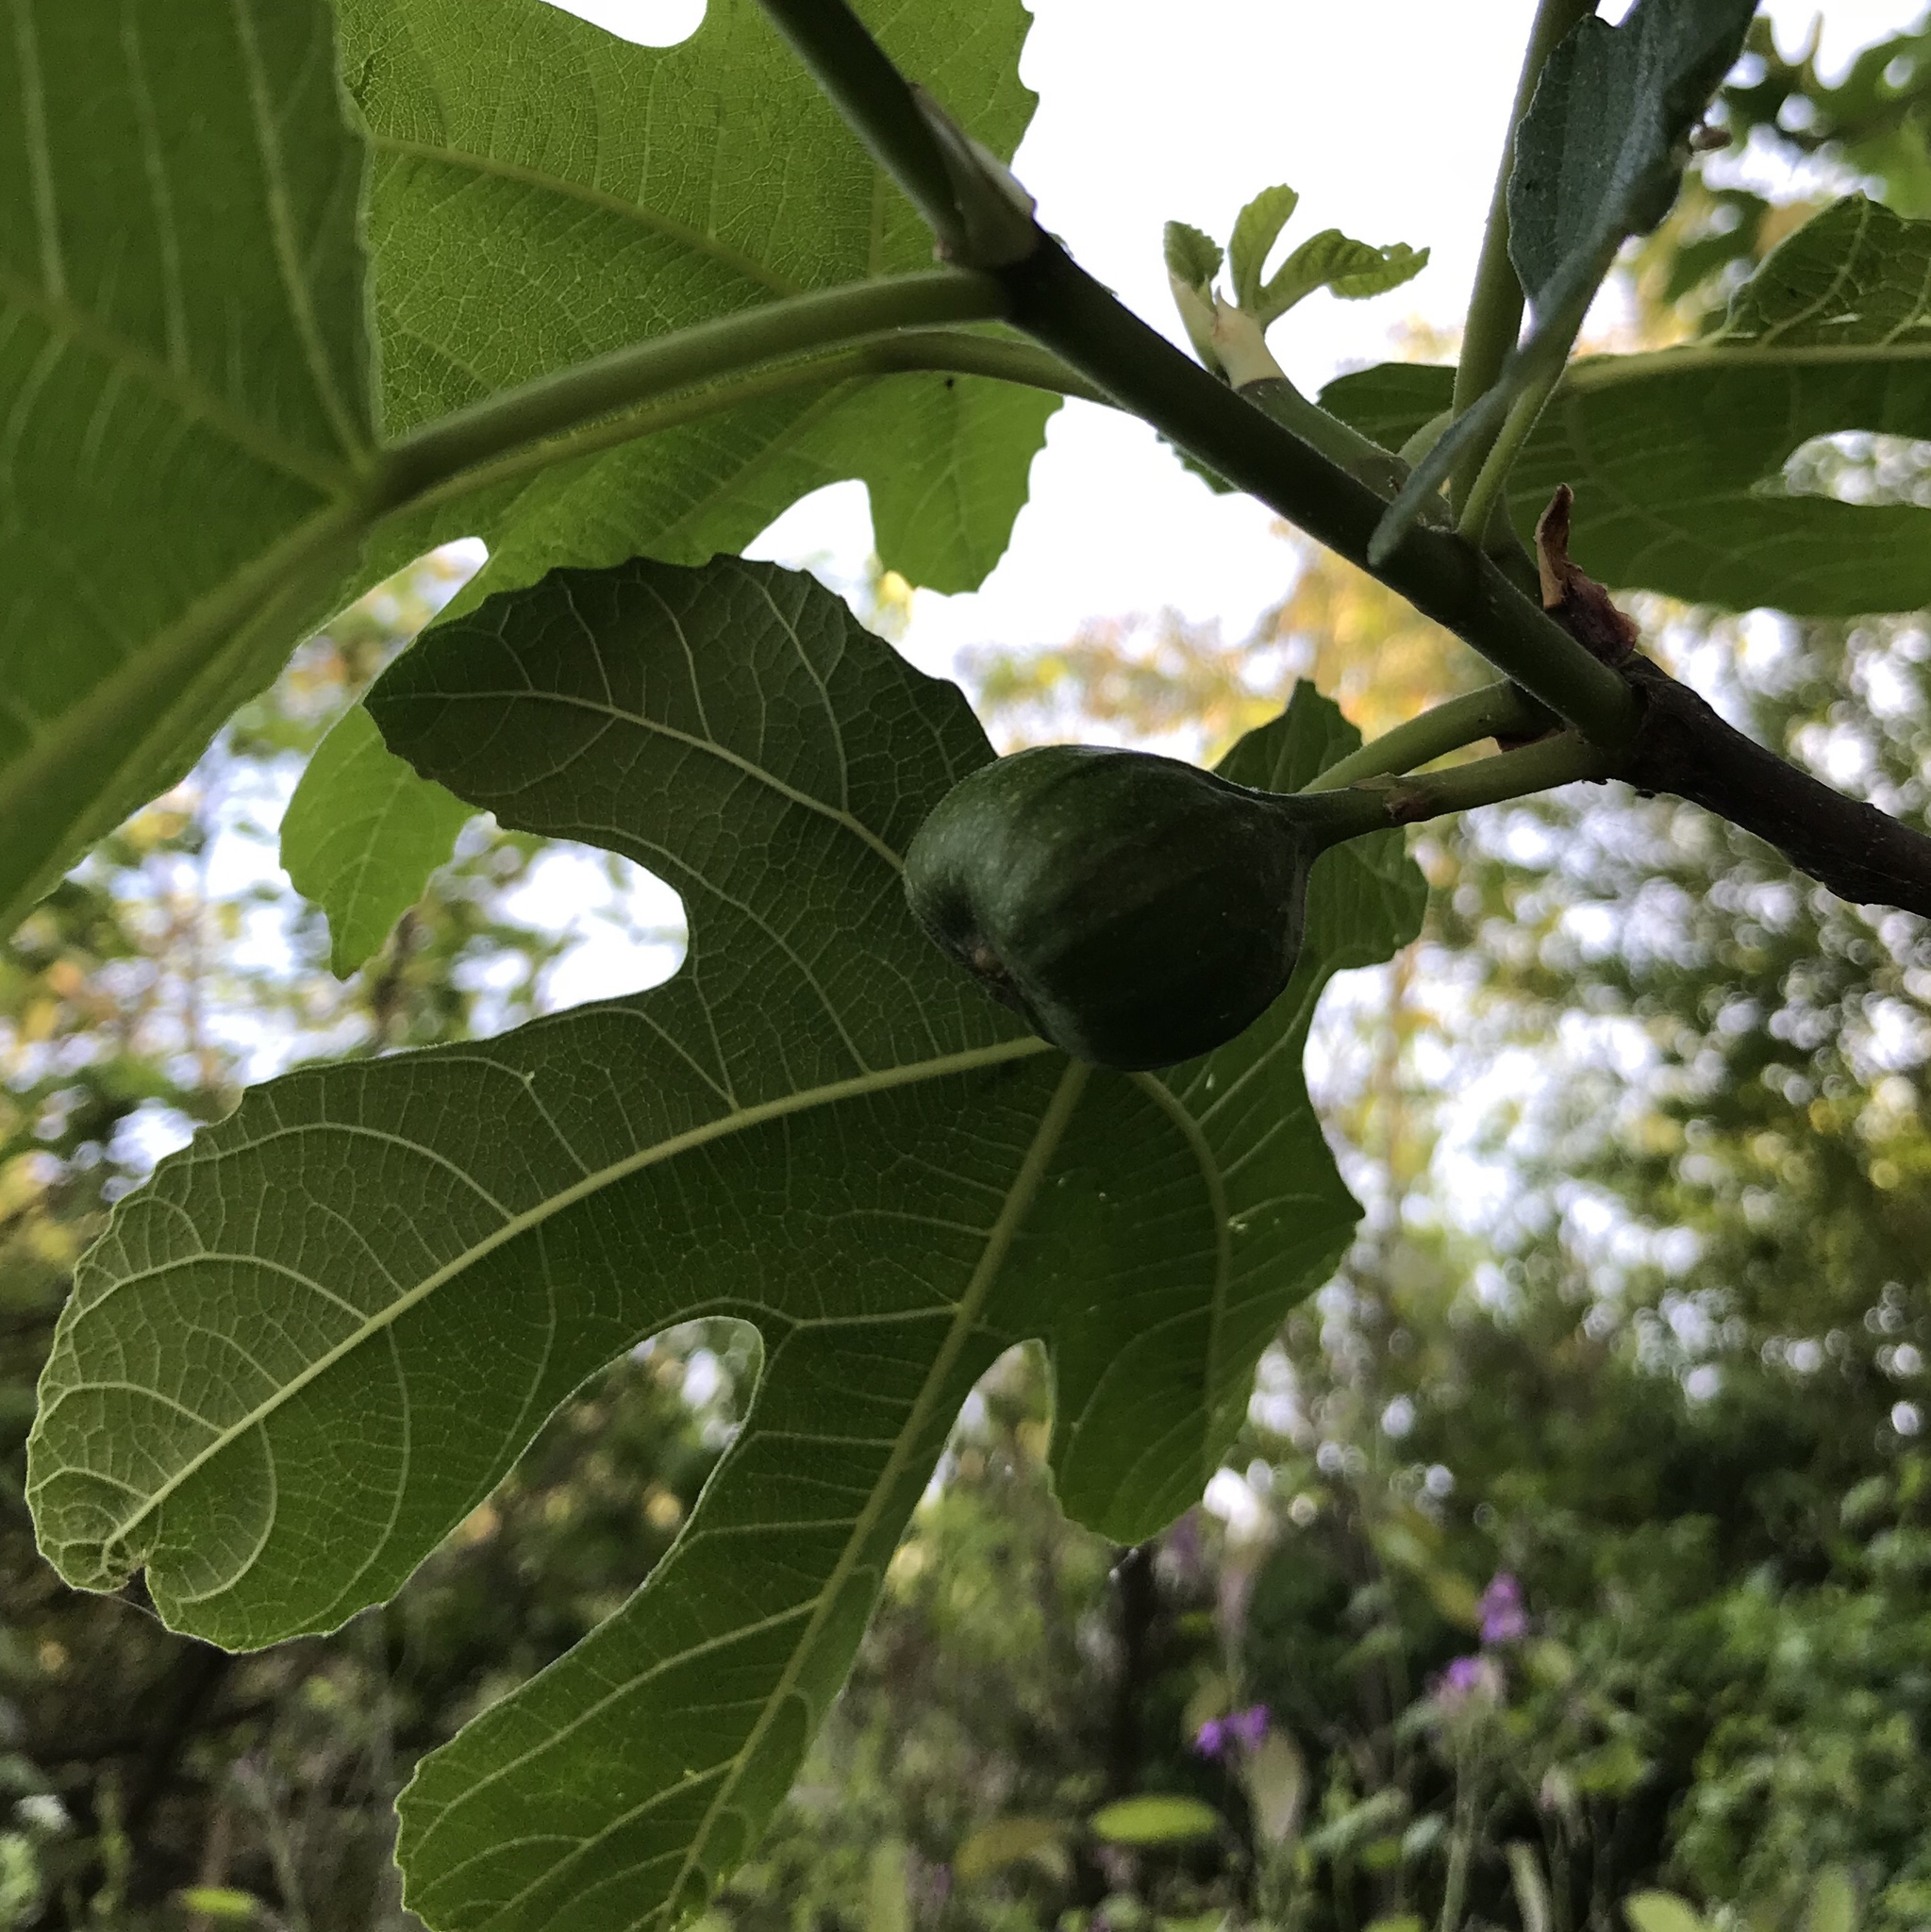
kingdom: Plantae
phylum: Tracheophyta
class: Magnoliopsida
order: Rosales
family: Moraceae
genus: Ficus
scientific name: Ficus carica
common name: Fig
